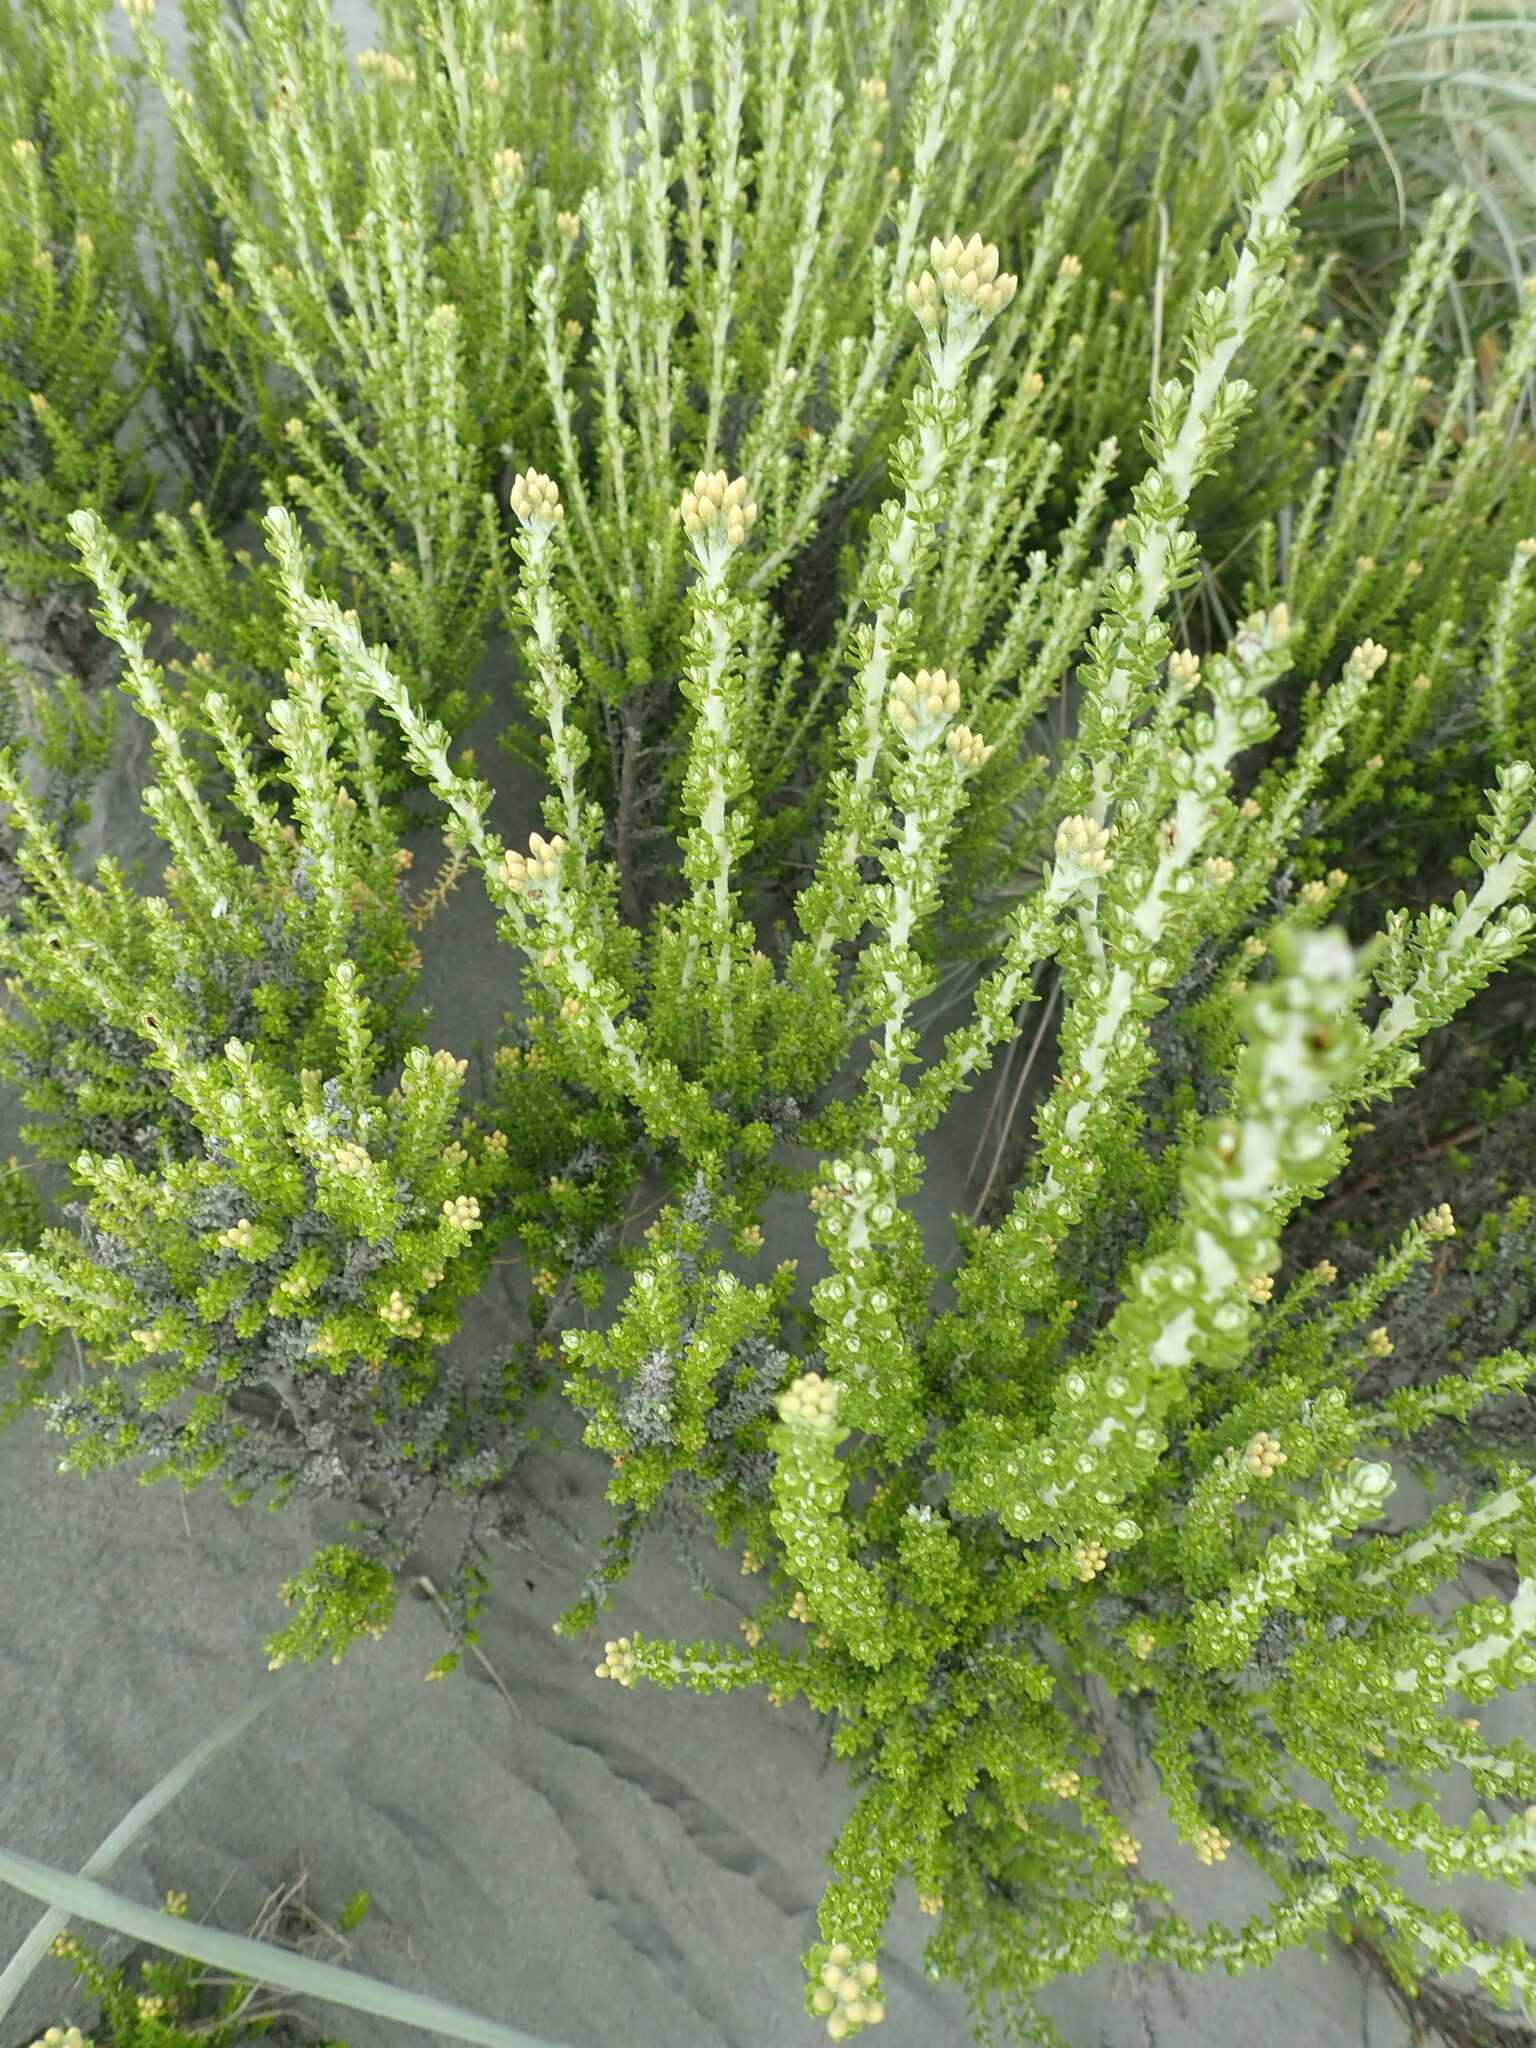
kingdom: Plantae
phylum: Tracheophyta
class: Magnoliopsida
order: Asterales
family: Asteraceae
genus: Ozothamnus
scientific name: Ozothamnus leptophyllus
